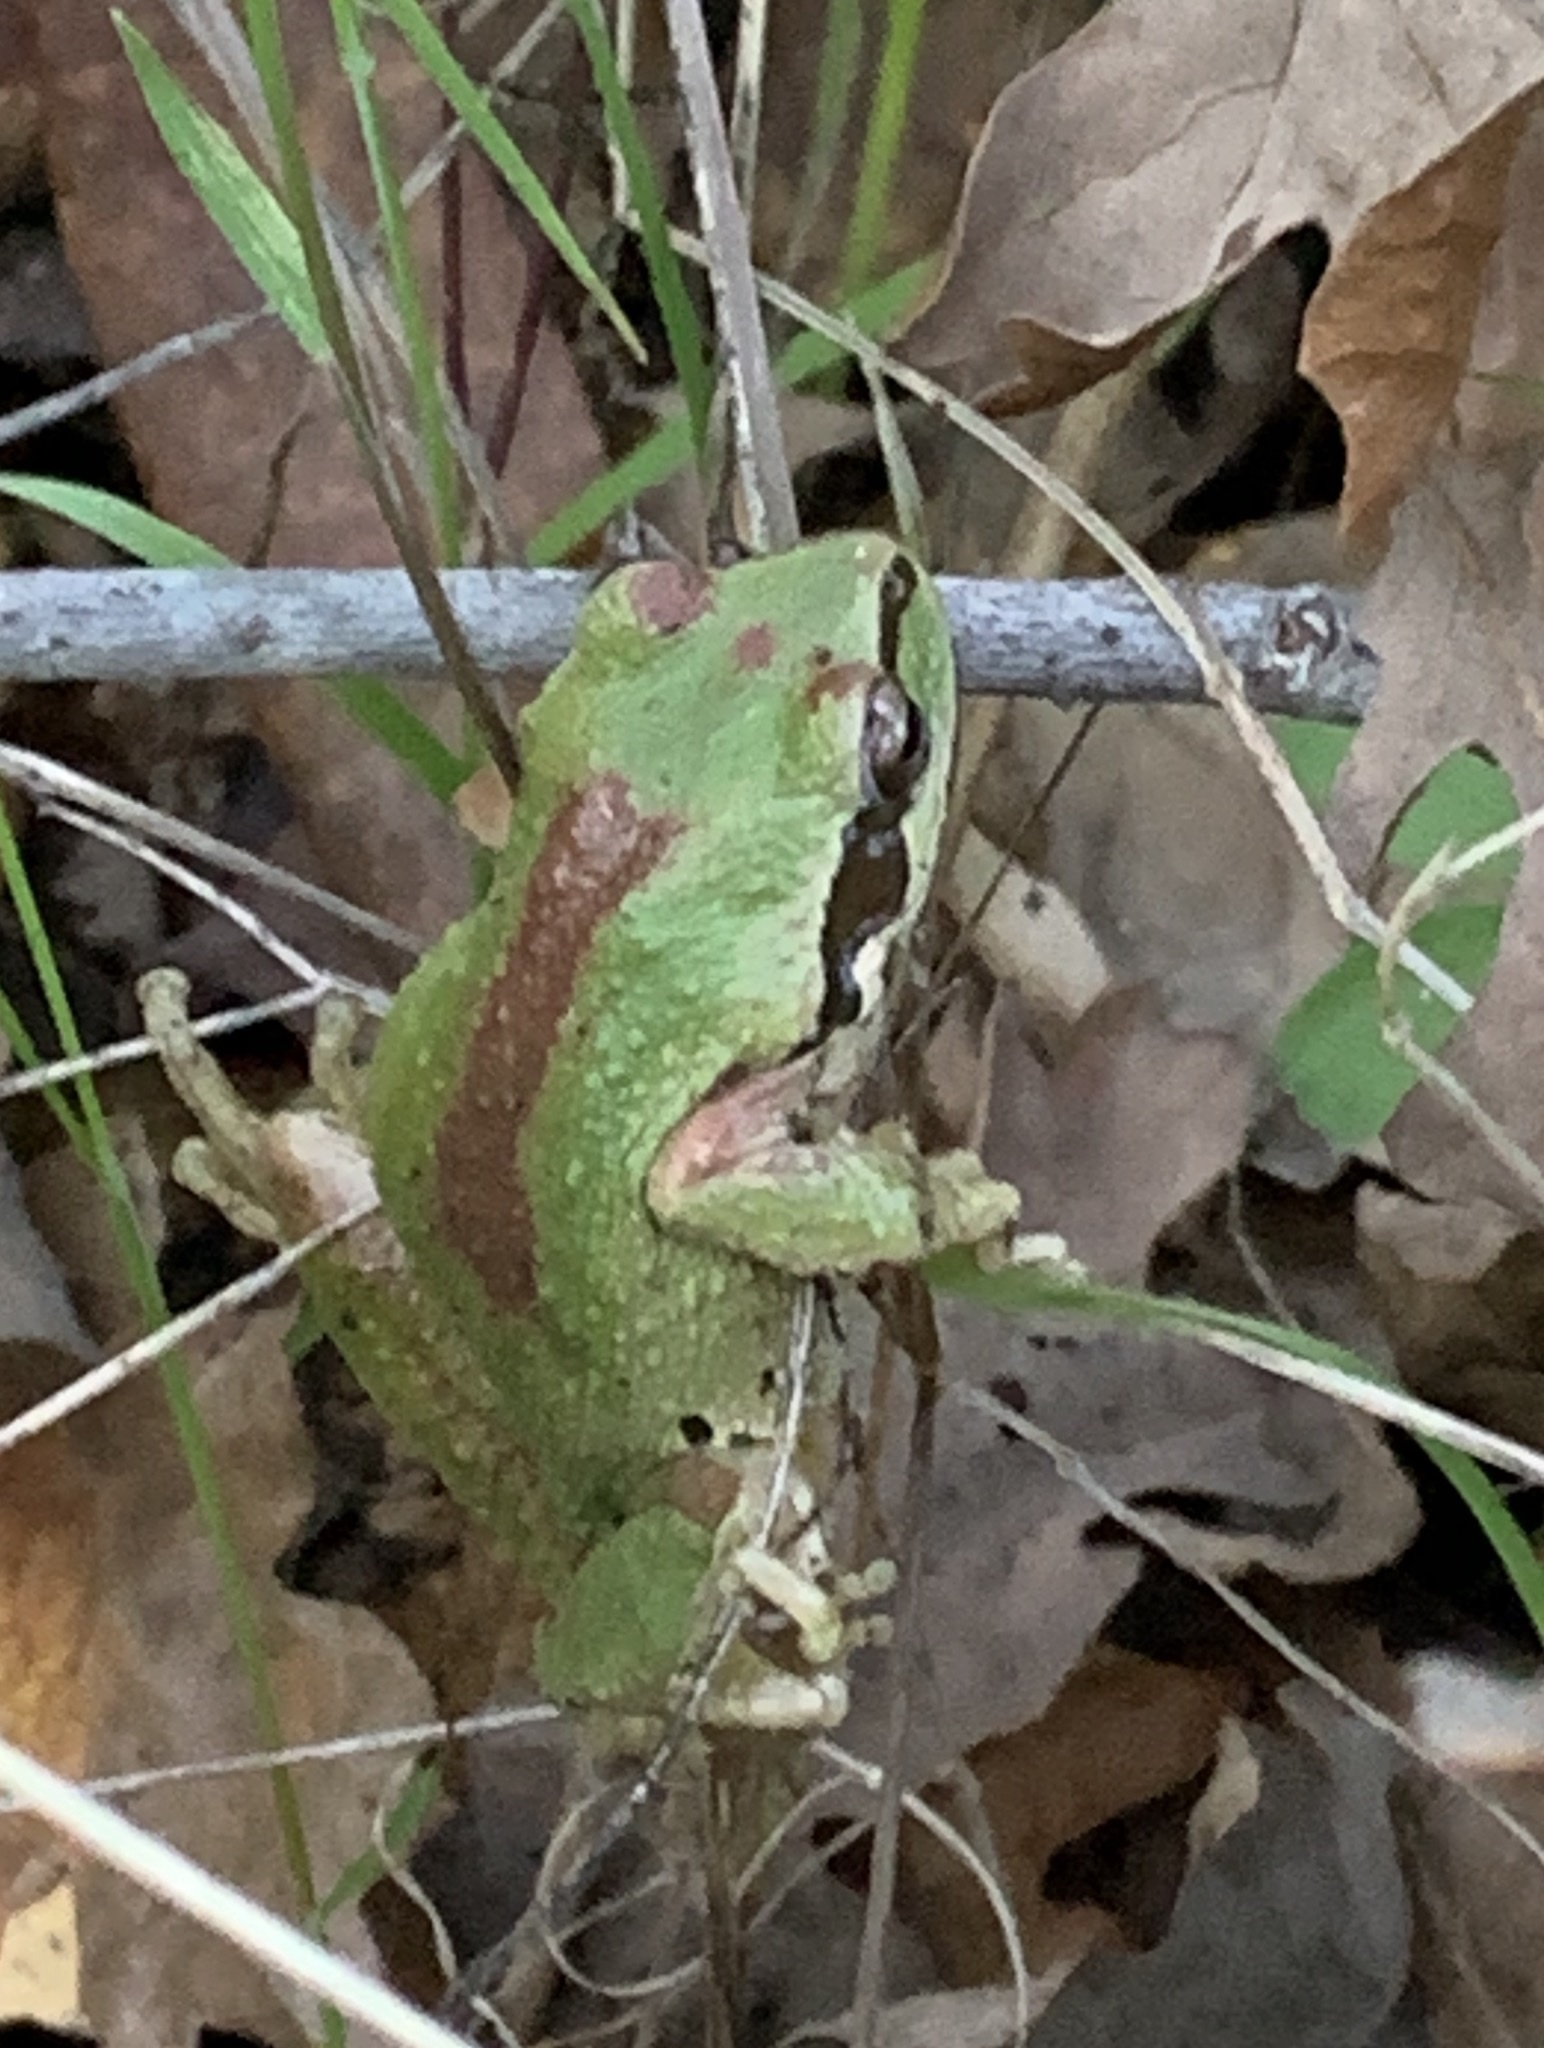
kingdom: Animalia
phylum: Chordata
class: Amphibia
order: Anura
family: Hylidae
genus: Pseudacris
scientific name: Pseudacris regilla
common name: Pacific chorus frog
